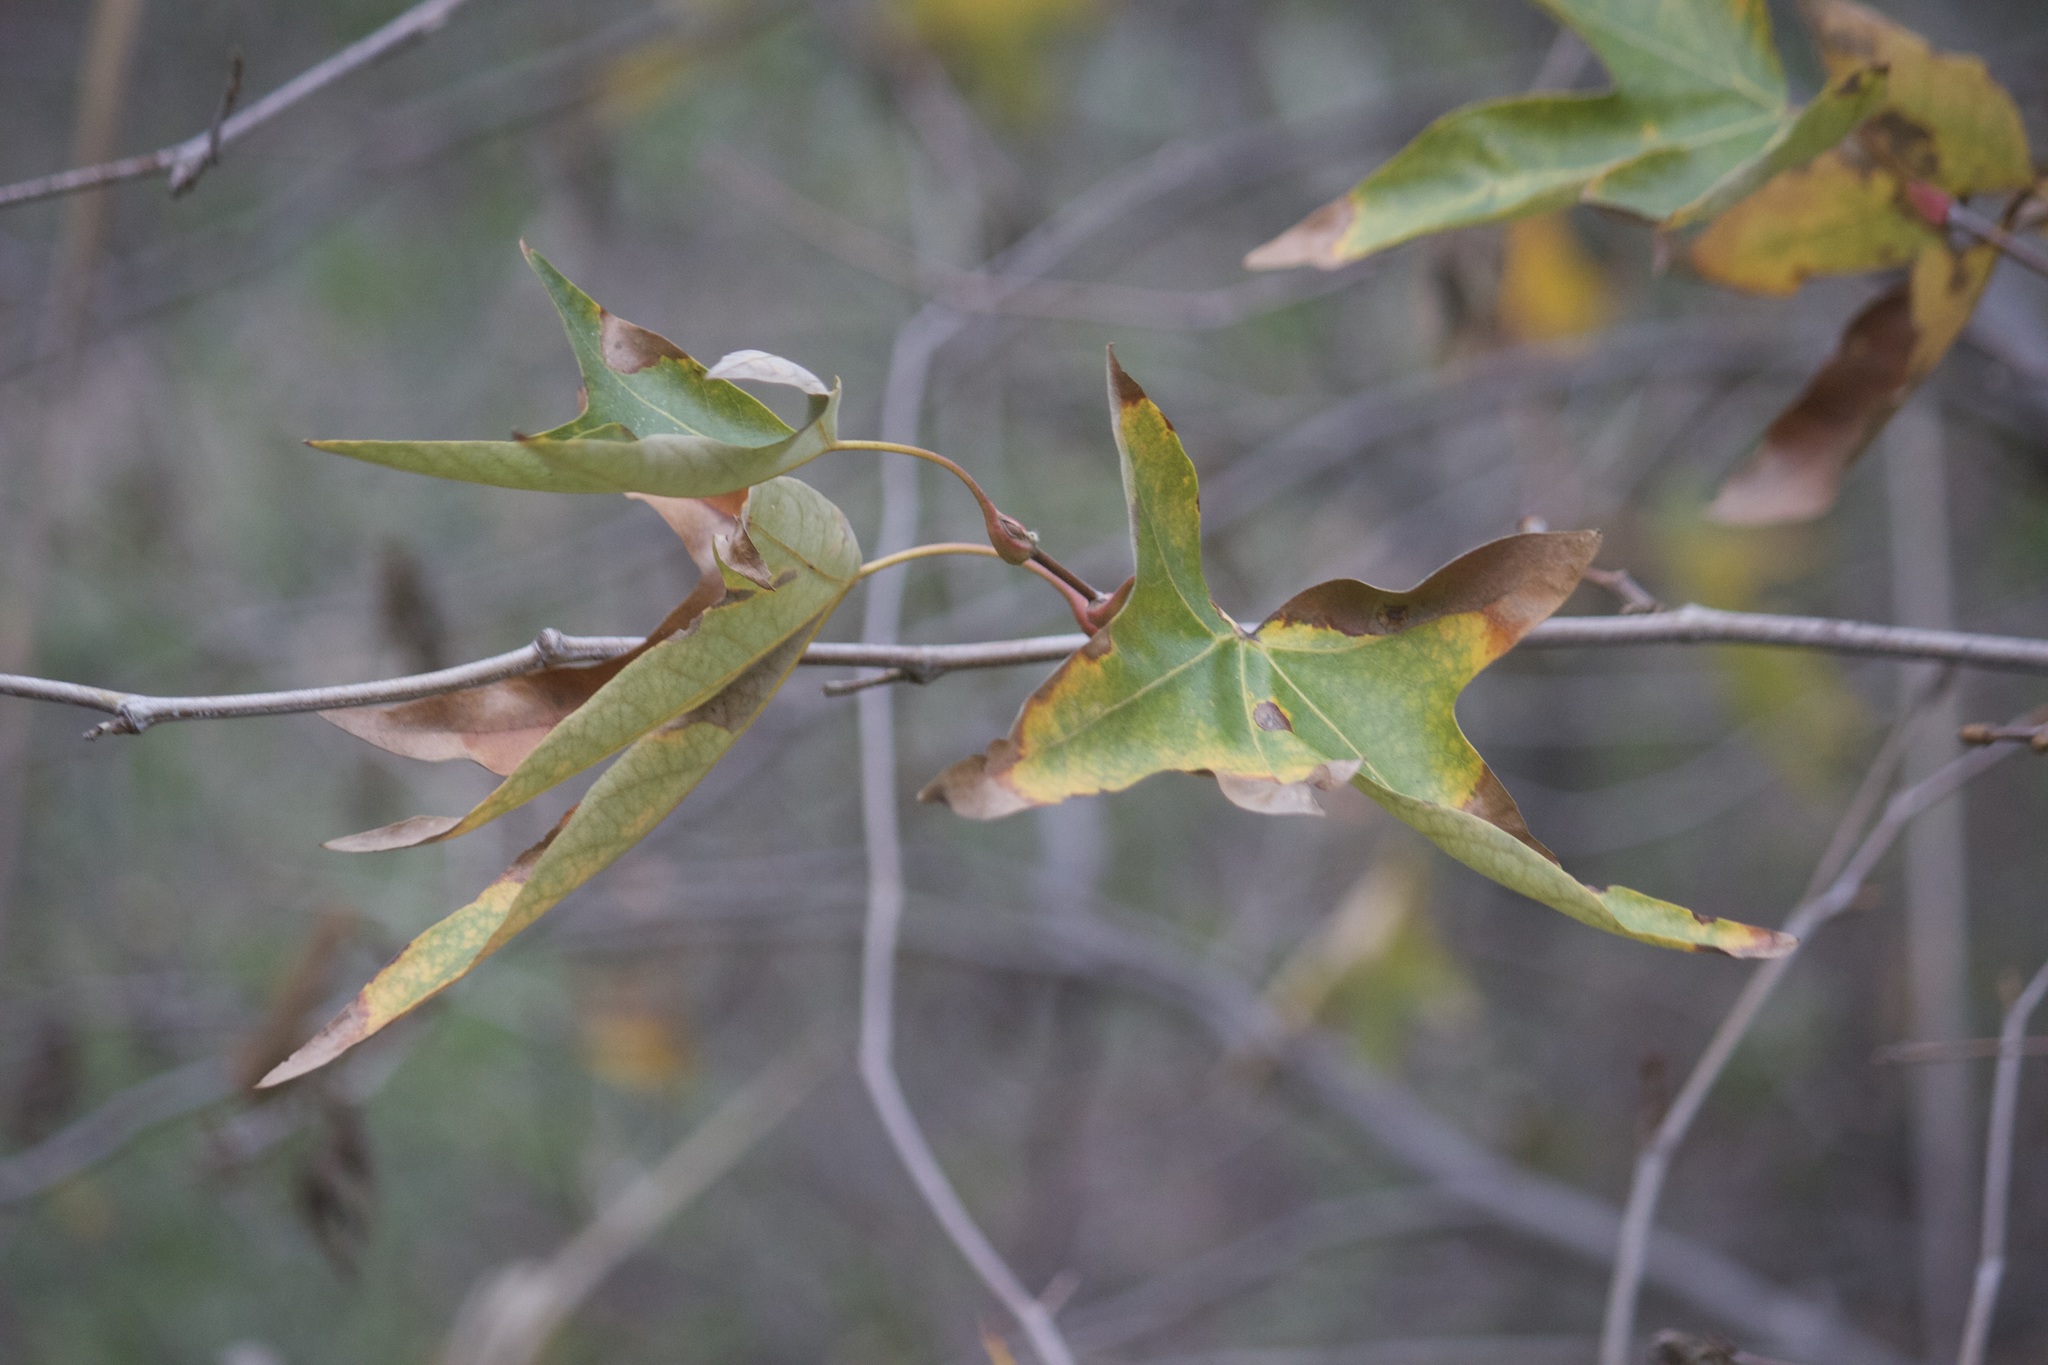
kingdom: Plantae
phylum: Tracheophyta
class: Magnoliopsida
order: Proteales
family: Platanaceae
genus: Platanus
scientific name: Platanus racemosa
